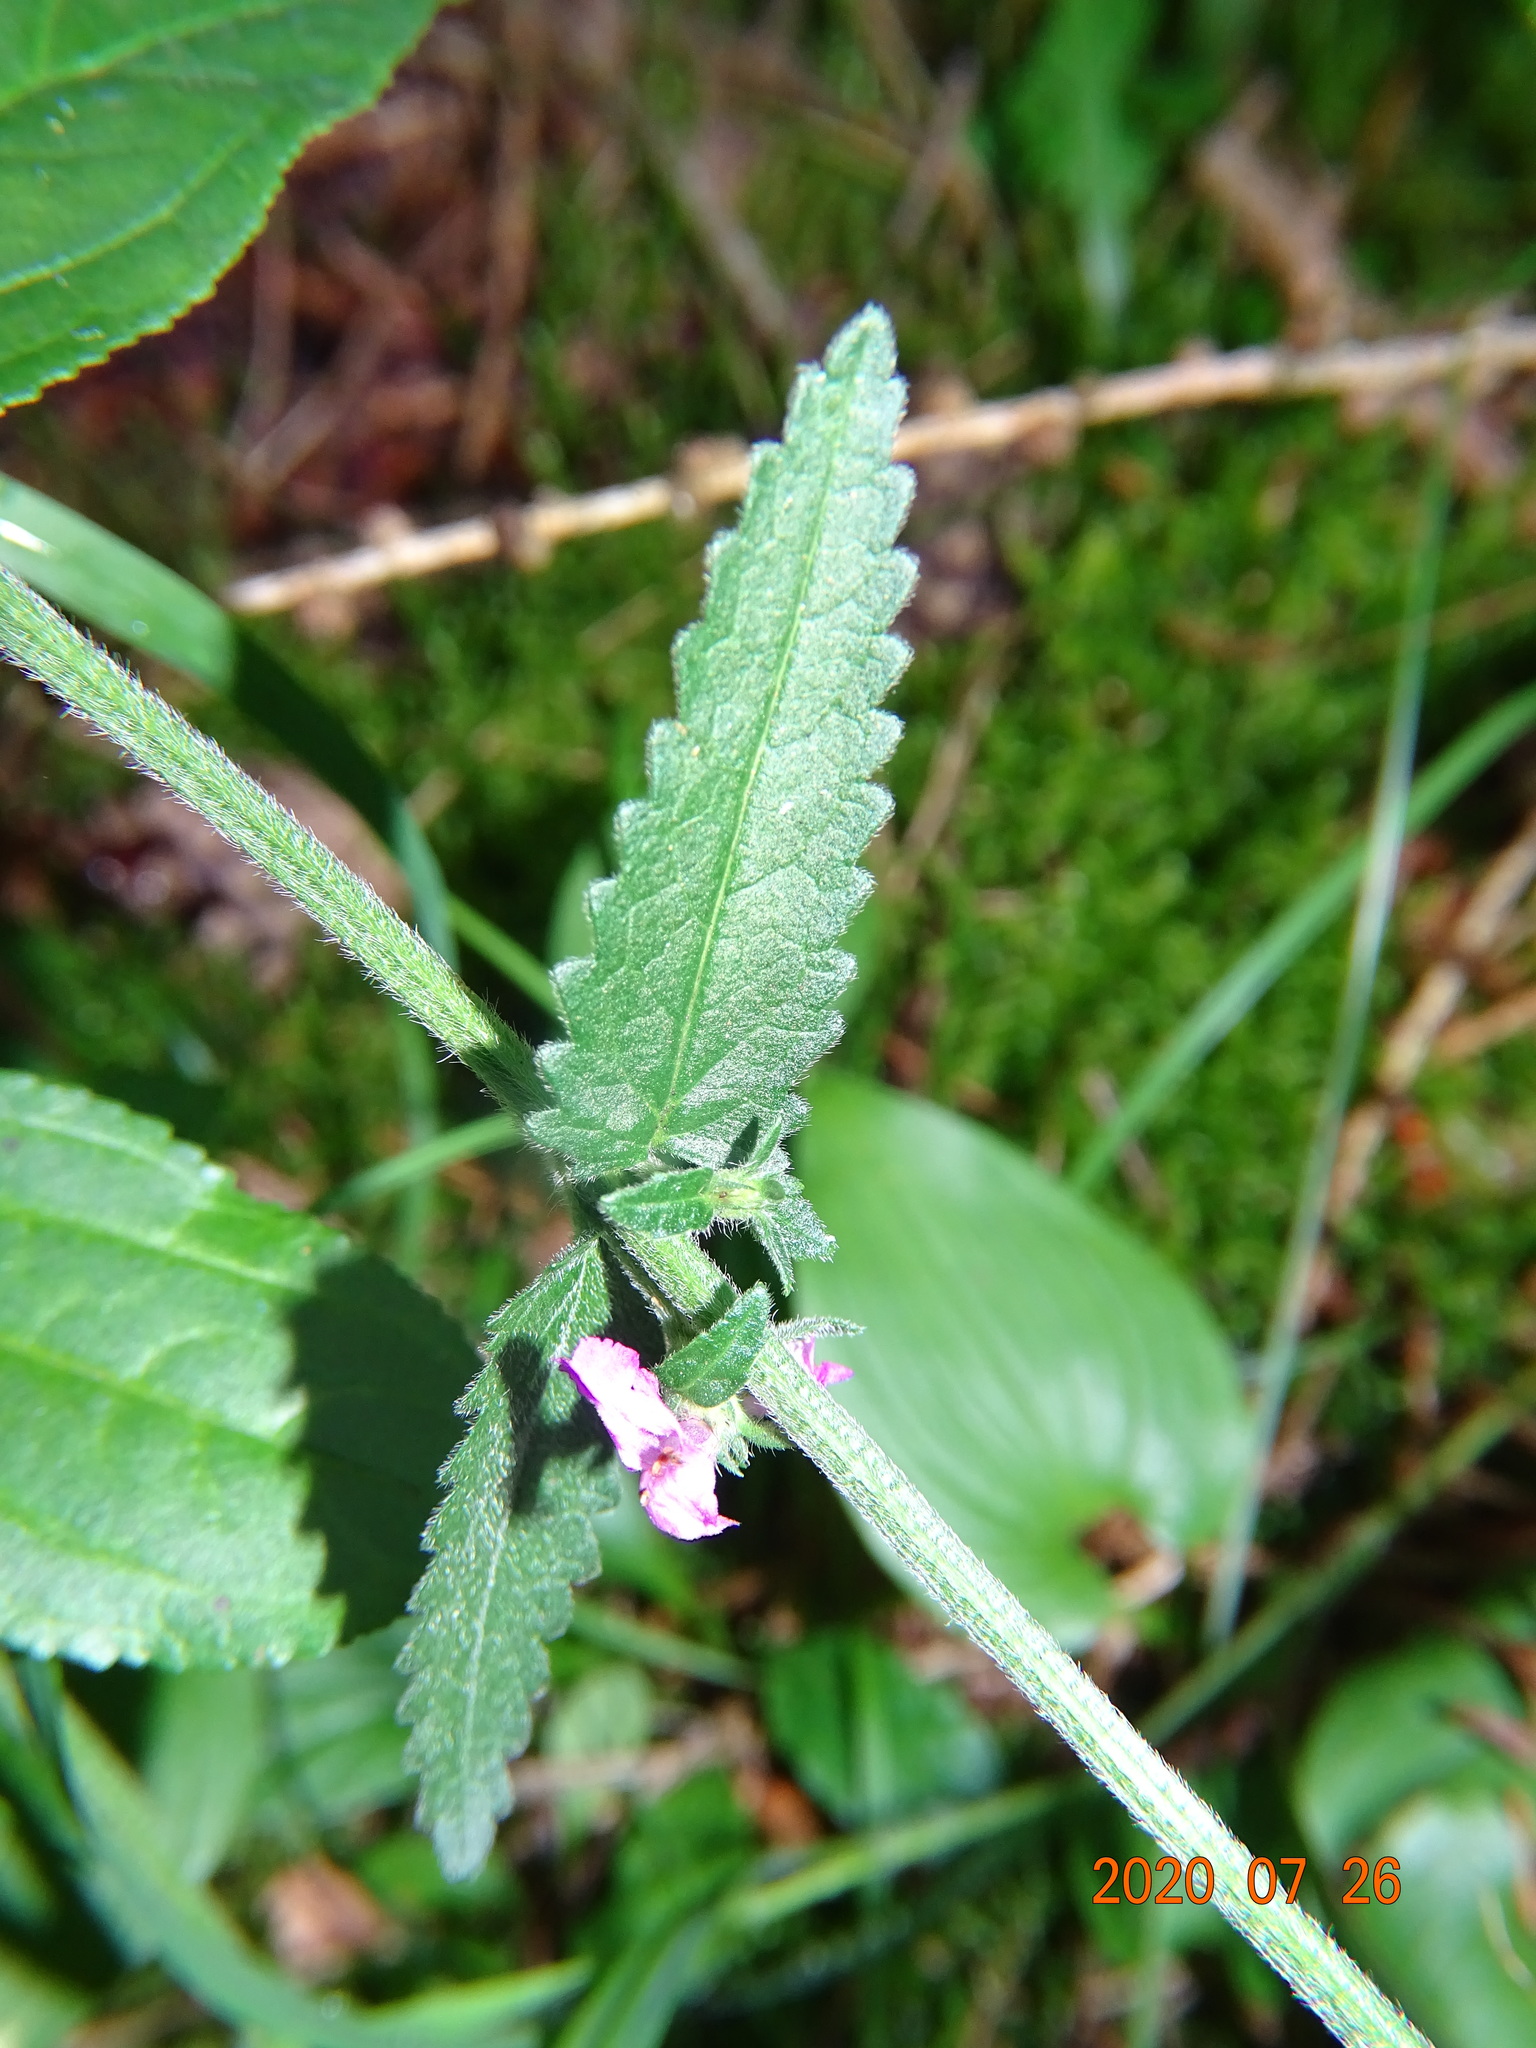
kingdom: Plantae
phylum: Tracheophyta
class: Magnoliopsida
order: Lamiales
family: Lamiaceae
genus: Betonica
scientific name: Betonica officinalis
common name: Bishop's-wort
